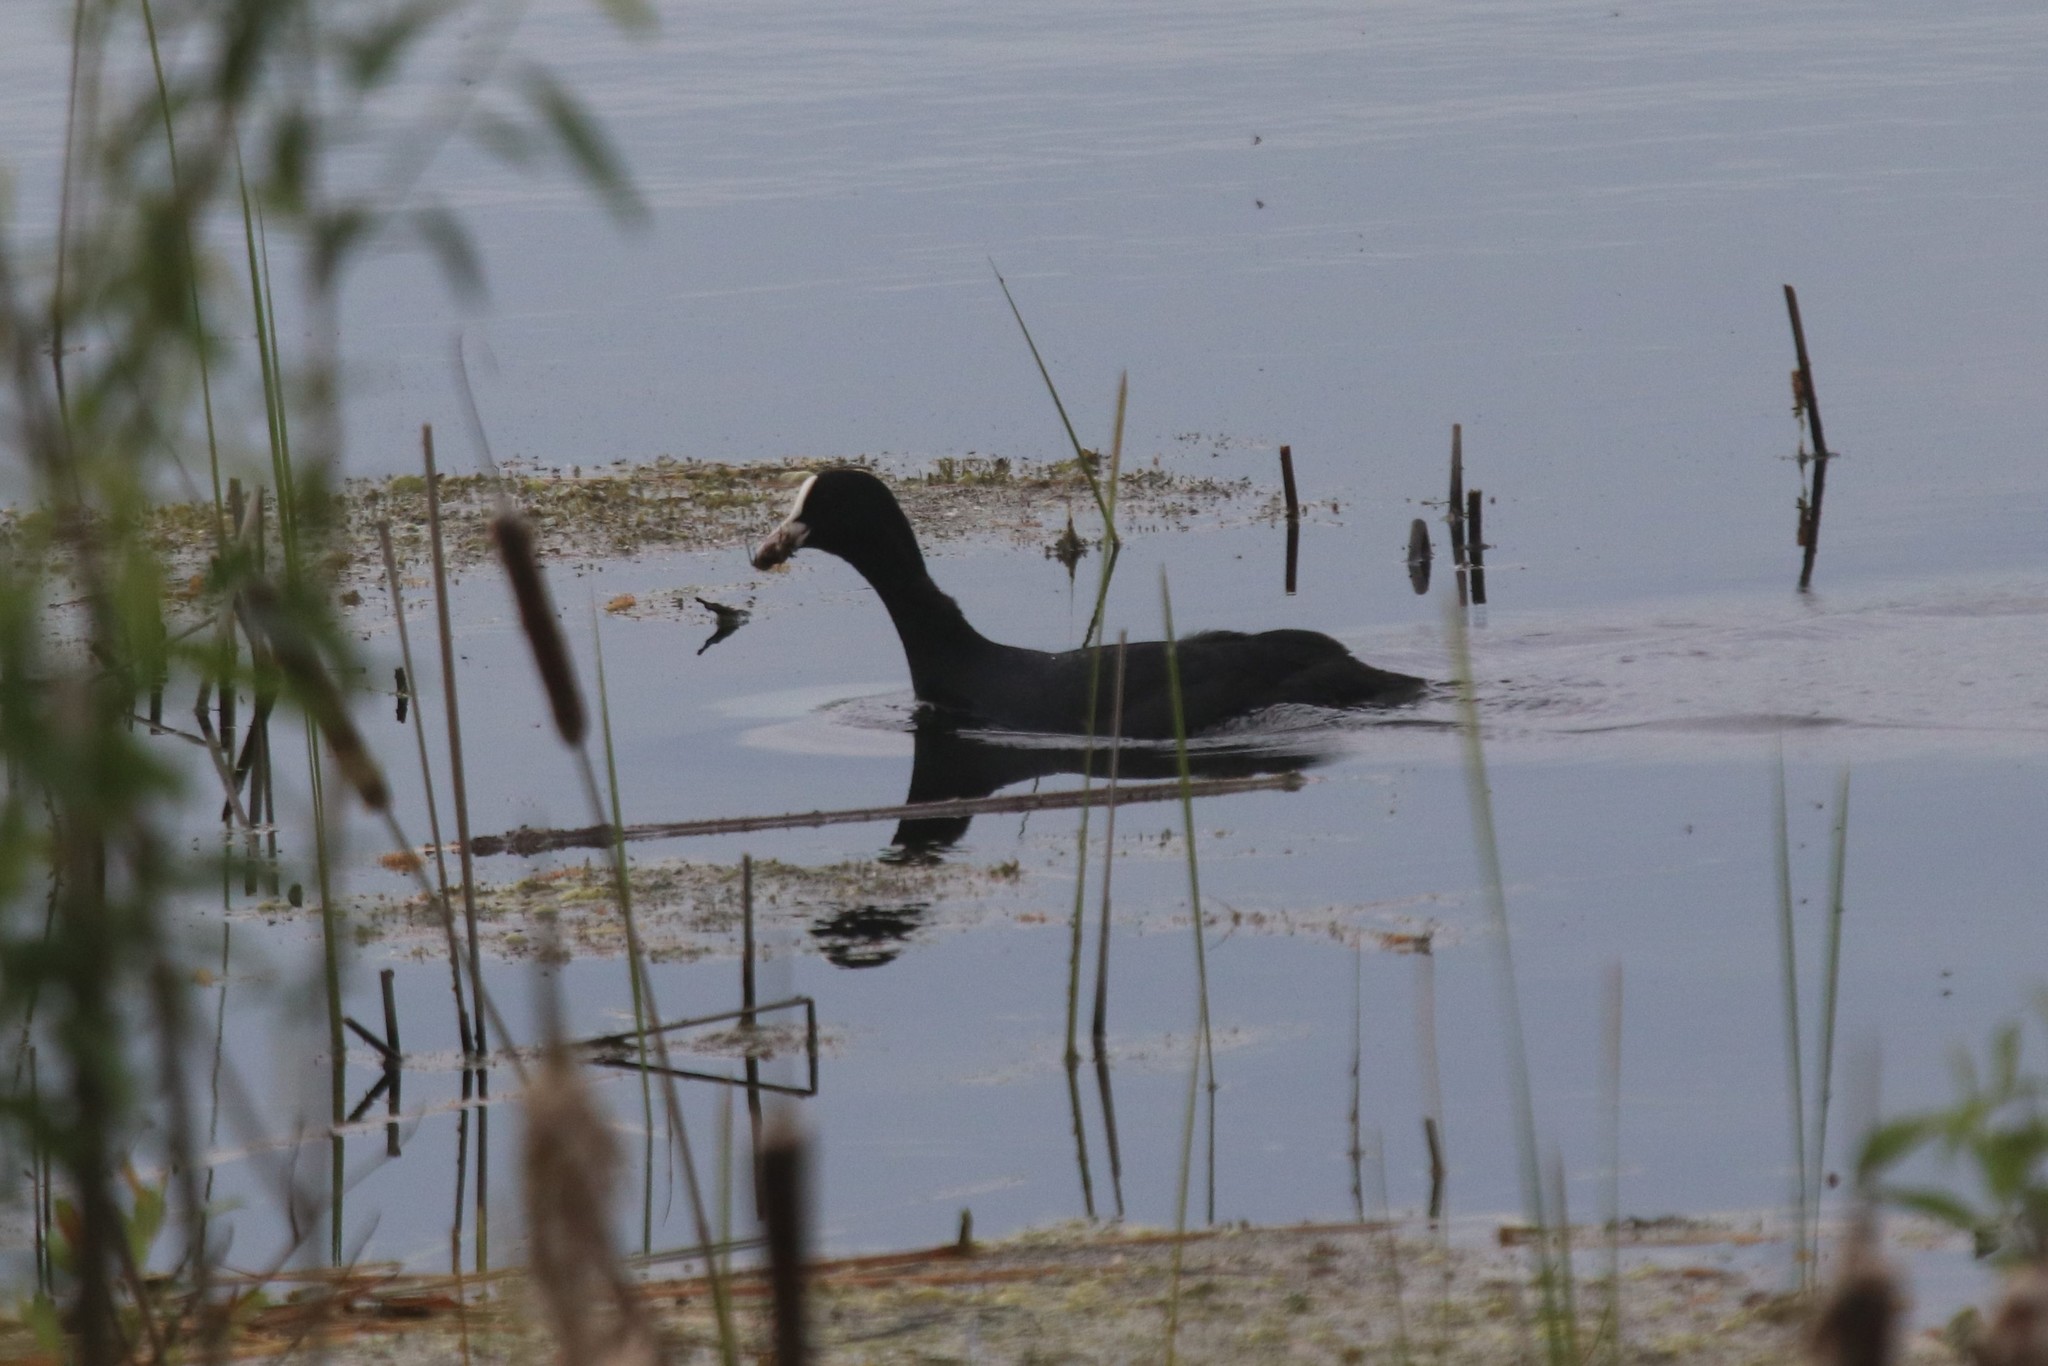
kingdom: Animalia
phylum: Chordata
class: Aves
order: Gruiformes
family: Rallidae
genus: Fulica
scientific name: Fulica atra
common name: Eurasian coot
